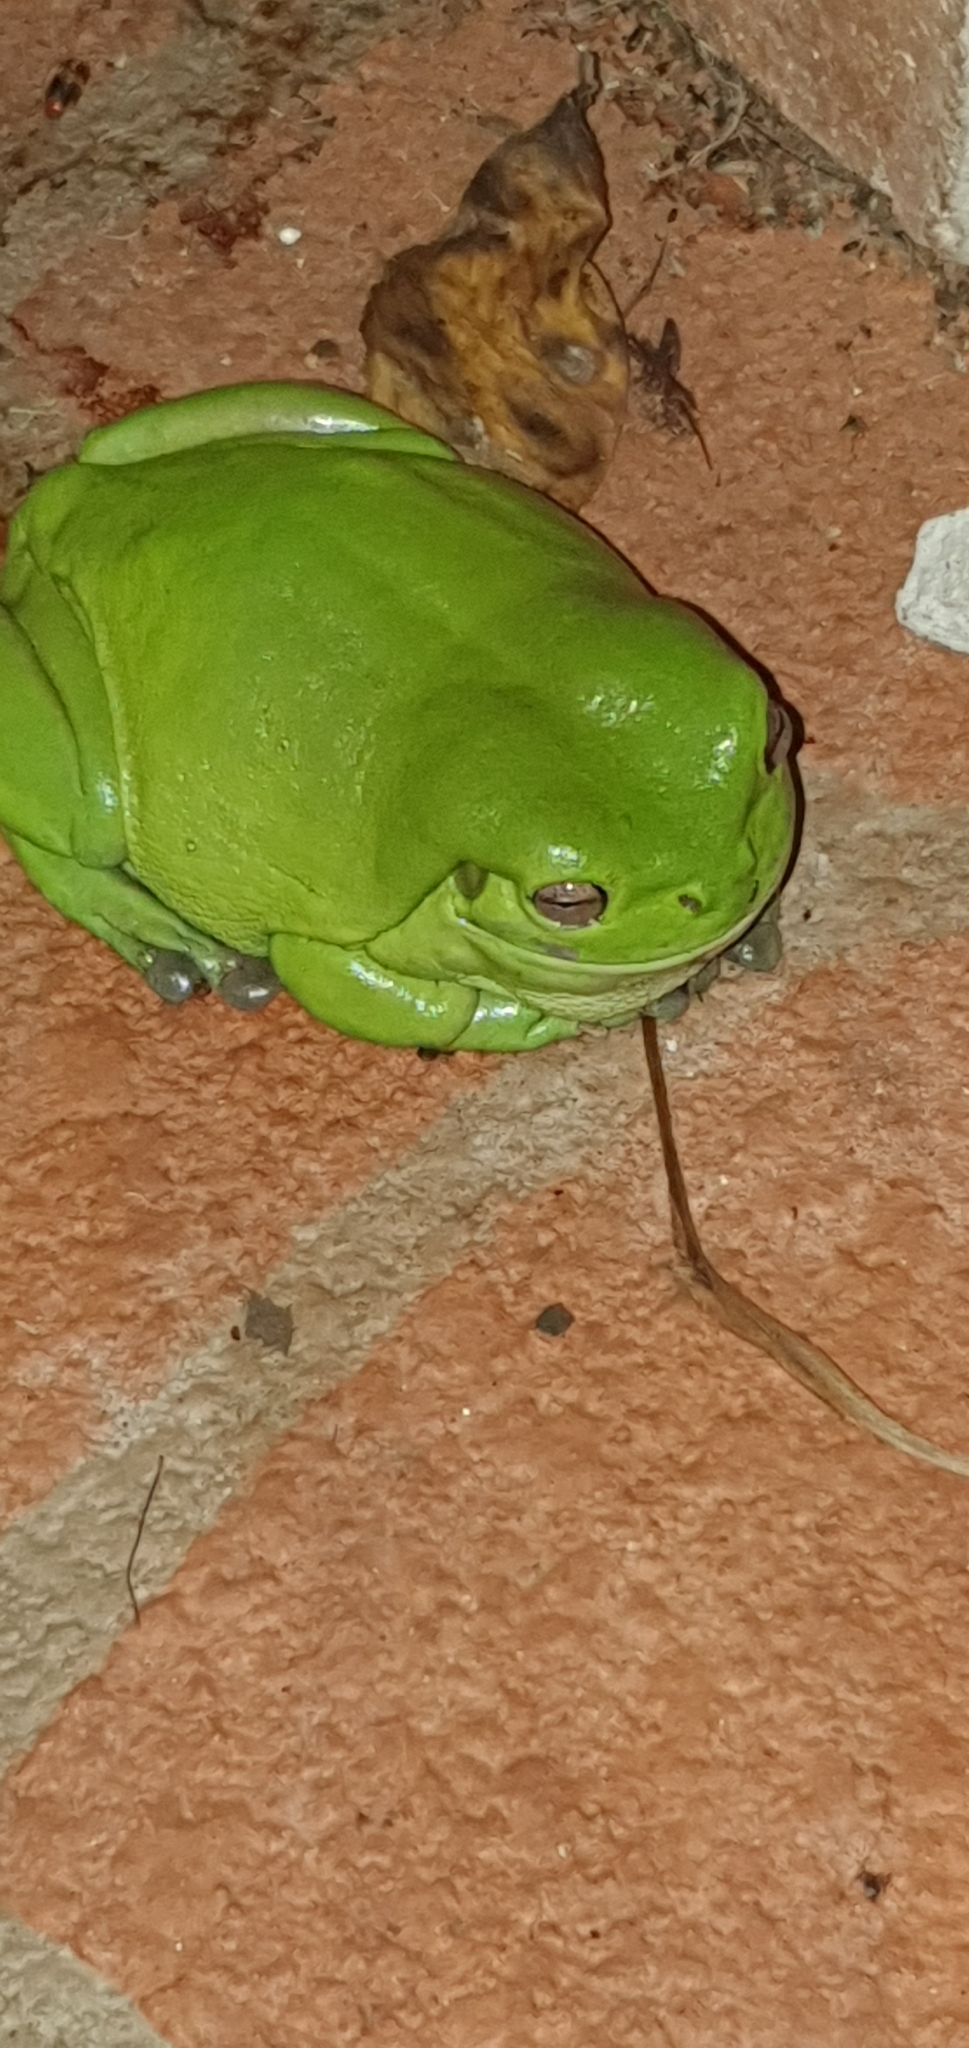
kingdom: Animalia
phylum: Chordata
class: Amphibia
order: Anura
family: Pelodryadidae
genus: Ranoidea
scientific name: Ranoidea caerulea
